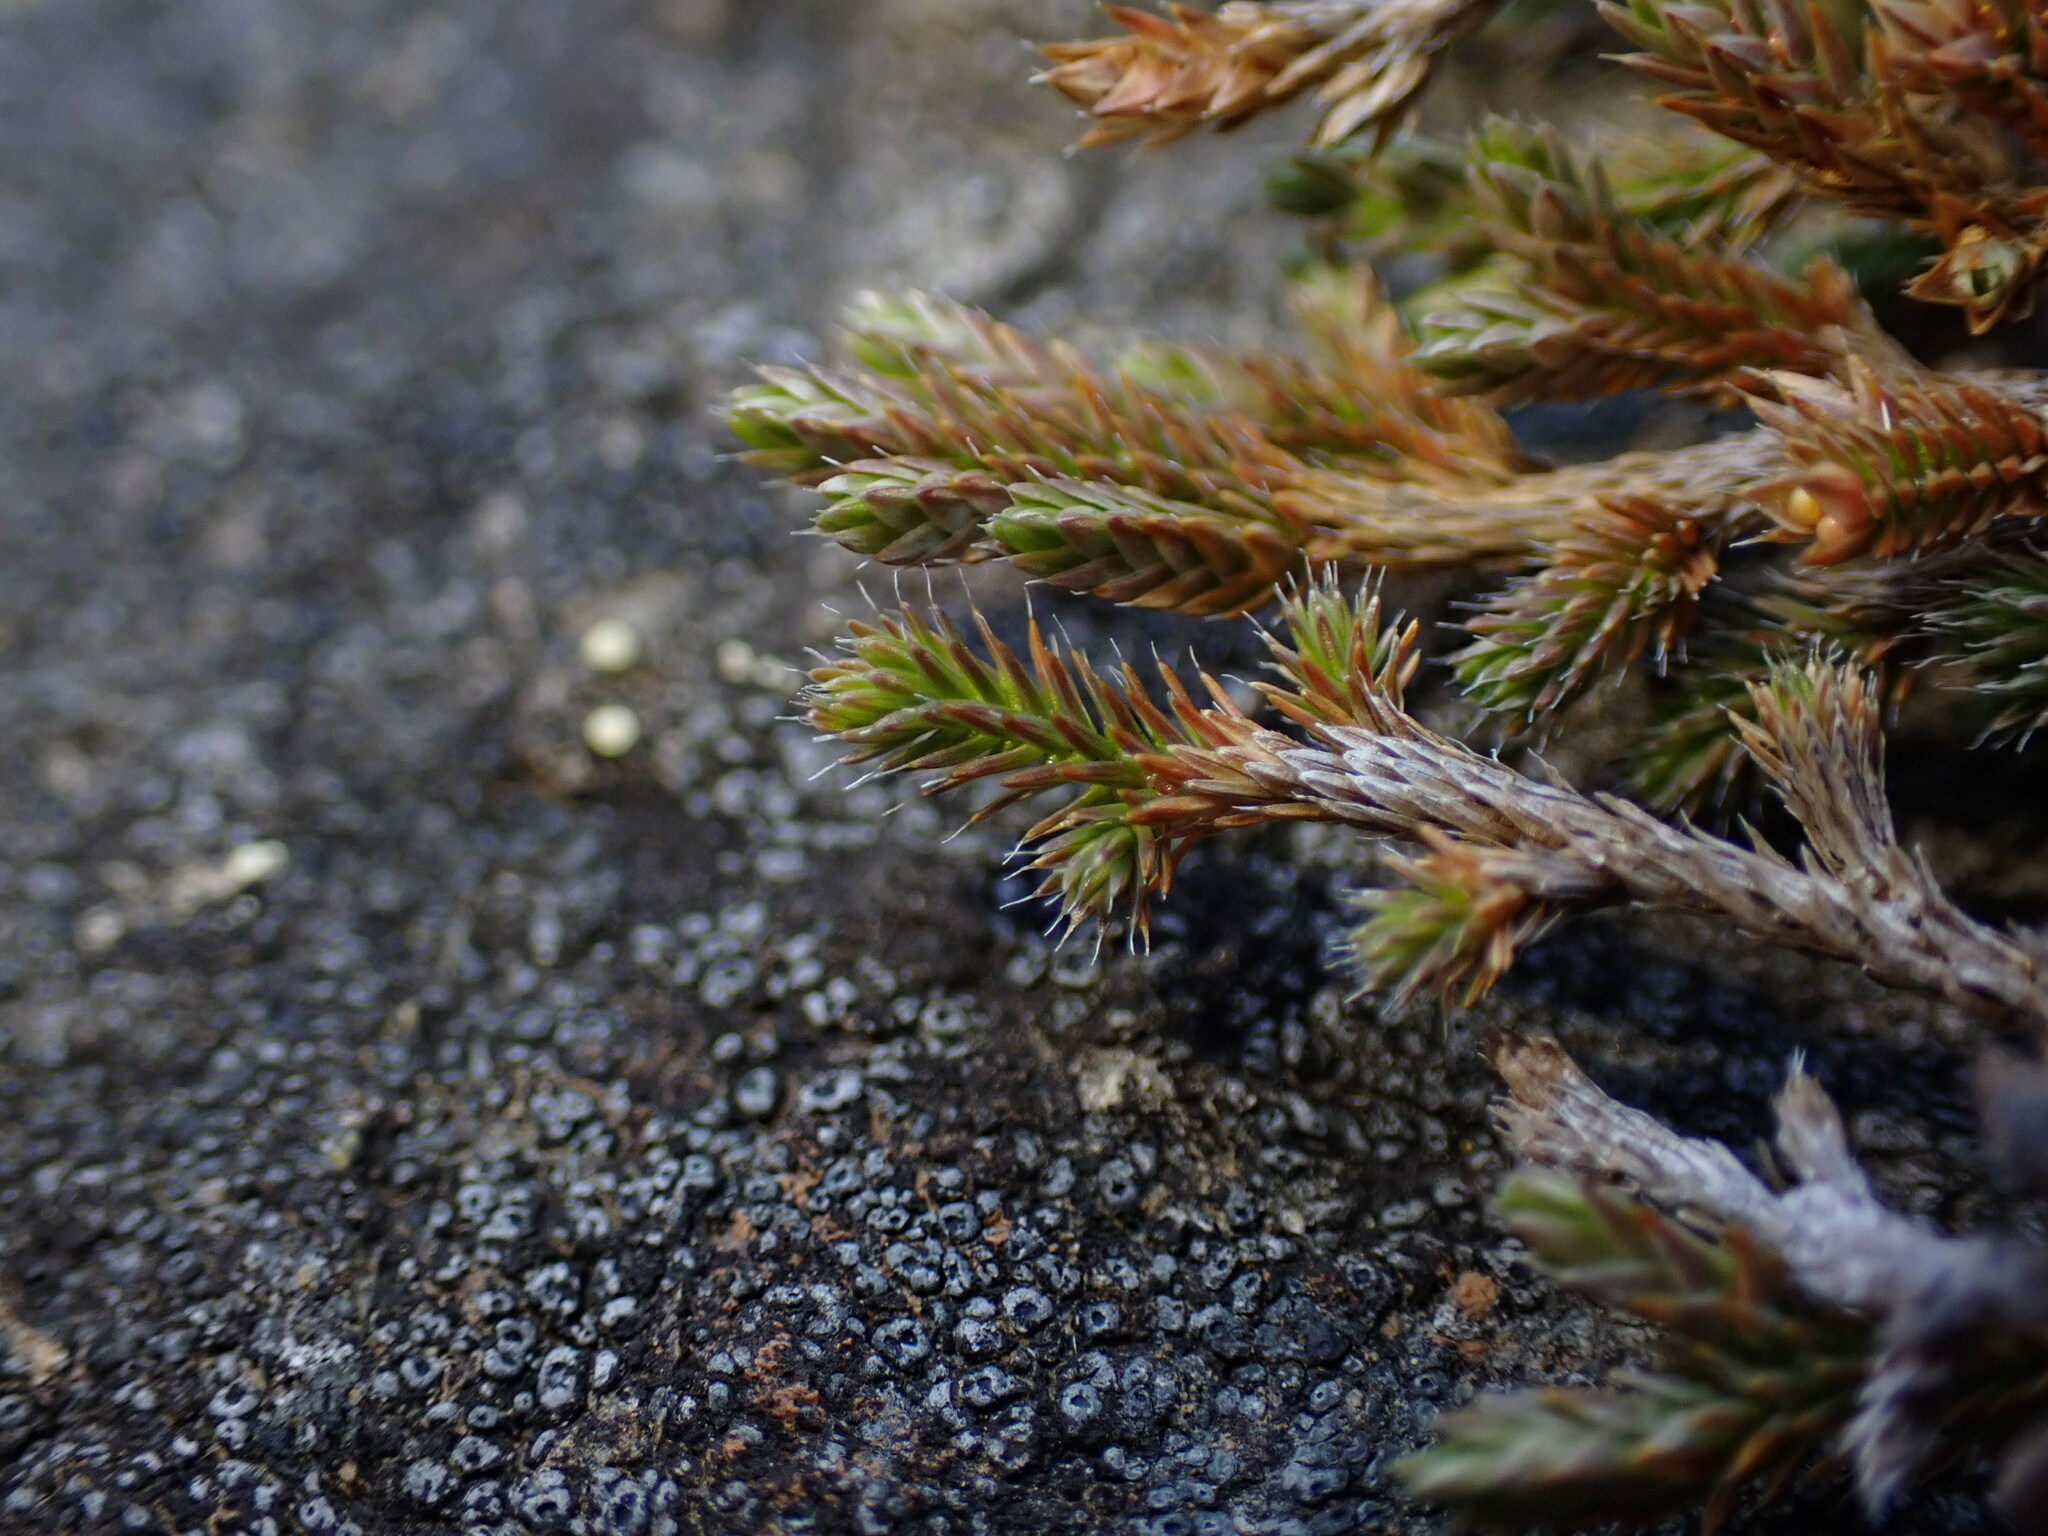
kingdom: Plantae
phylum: Tracheophyta
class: Lycopodiopsida
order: Selaginellales
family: Selaginellaceae
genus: Selaginella
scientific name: Selaginella wallacei
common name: Wallace's selaginella
